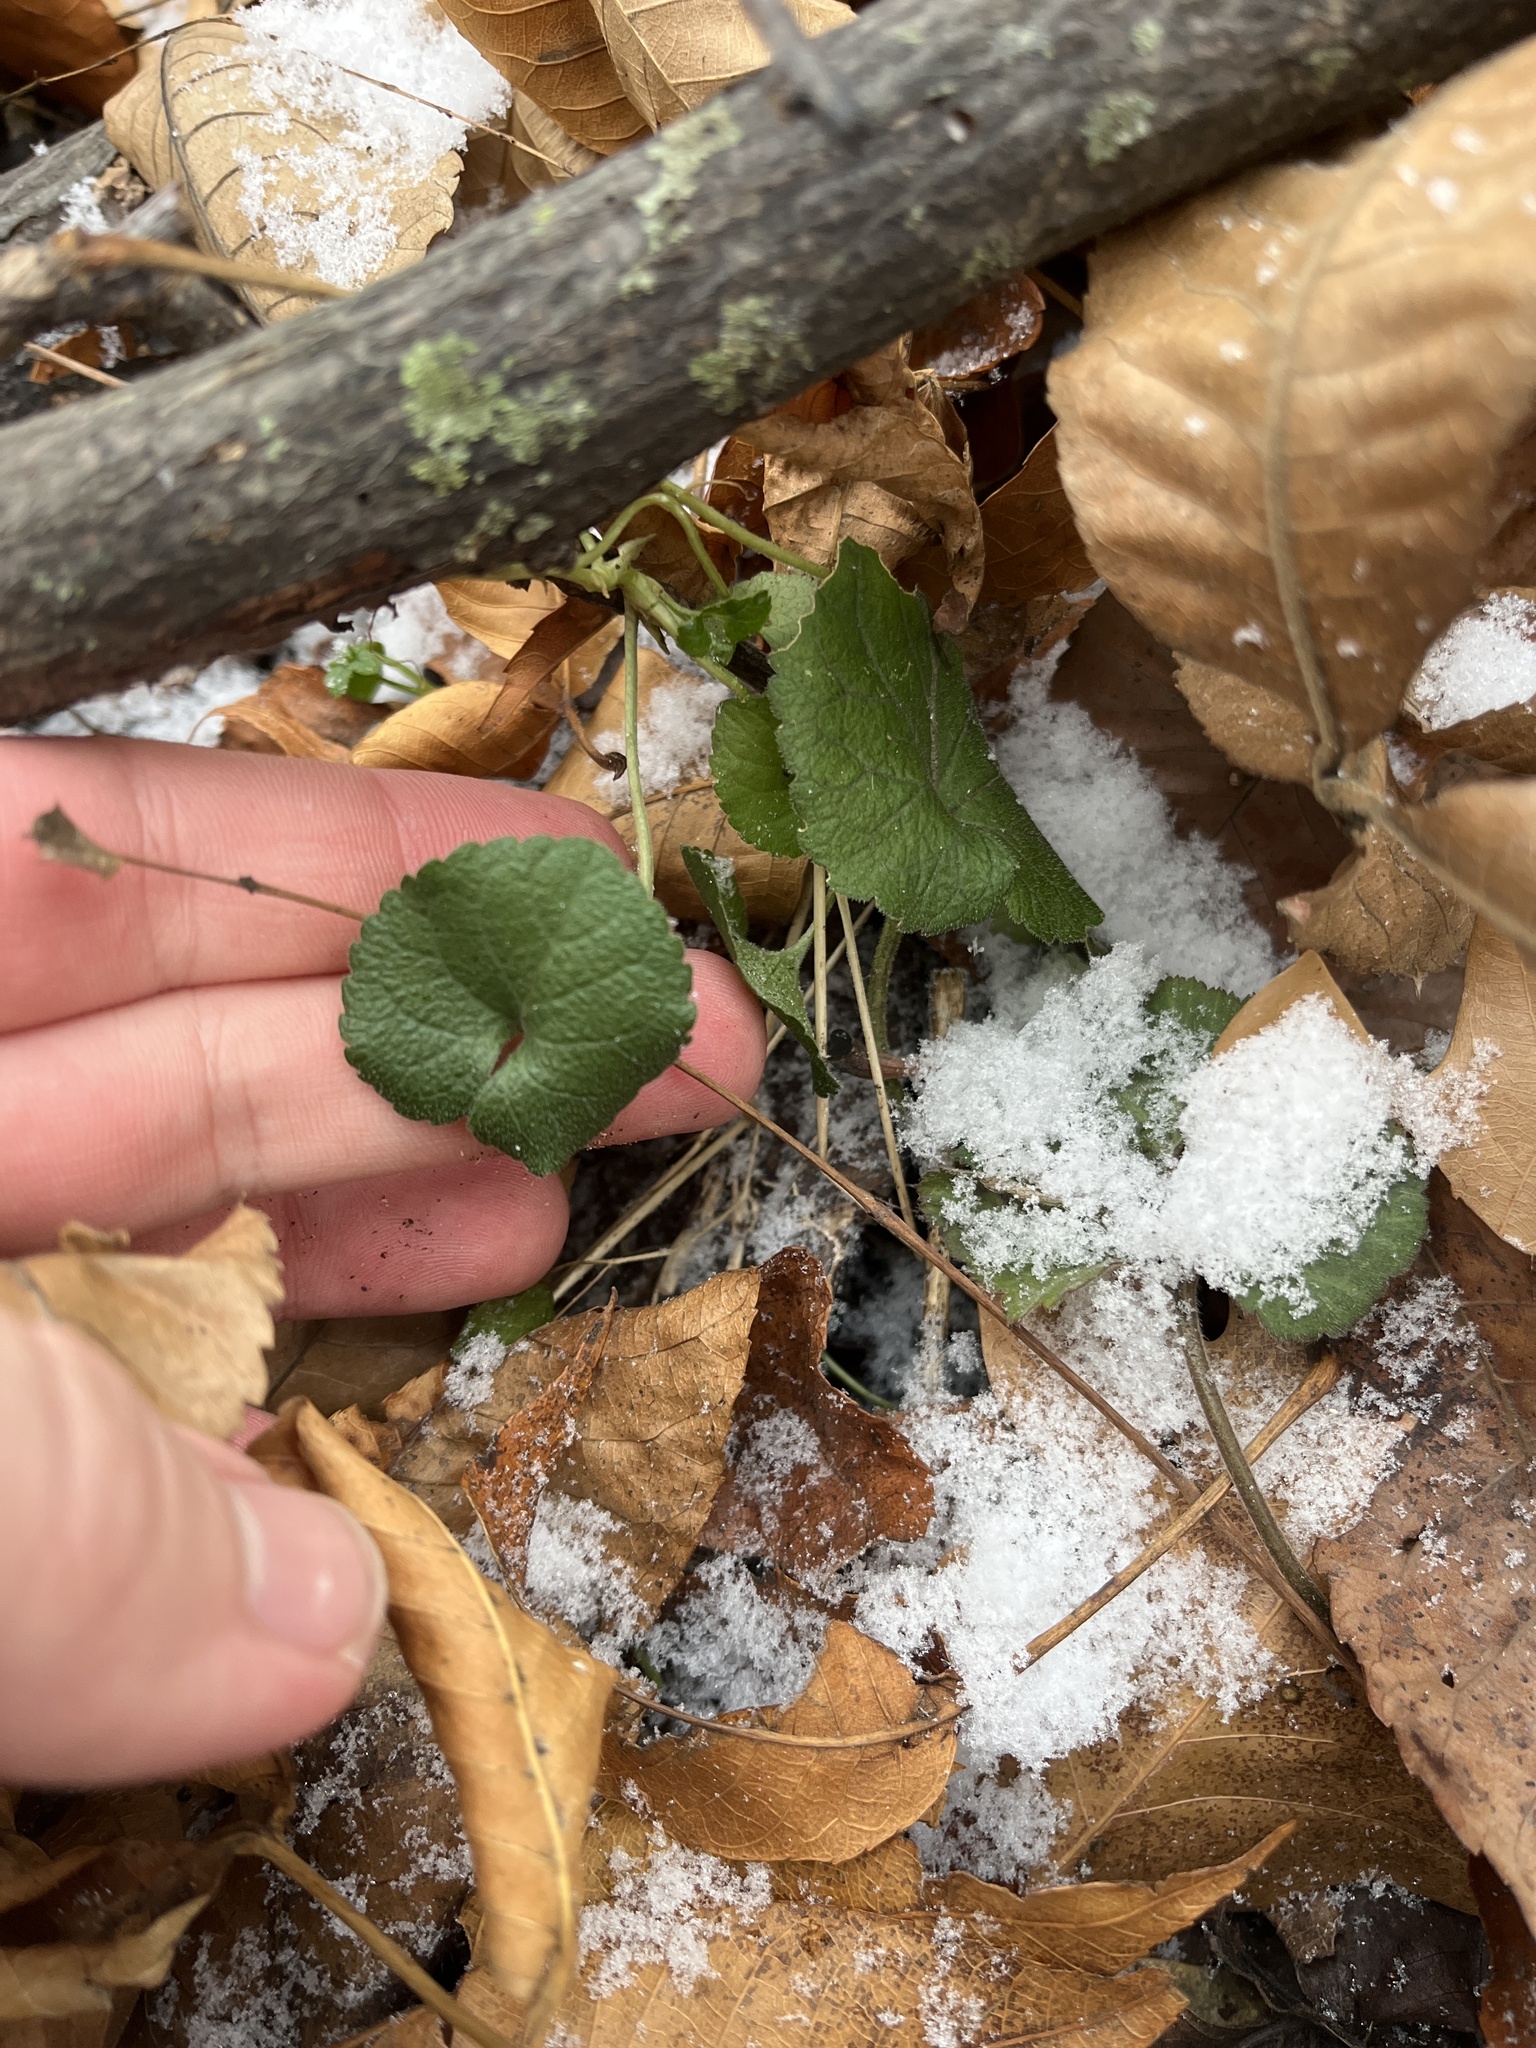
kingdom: Plantae
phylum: Tracheophyta
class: Magnoliopsida
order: Brassicales
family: Brassicaceae
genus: Alliaria
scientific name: Alliaria petiolata
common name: Garlic mustard
